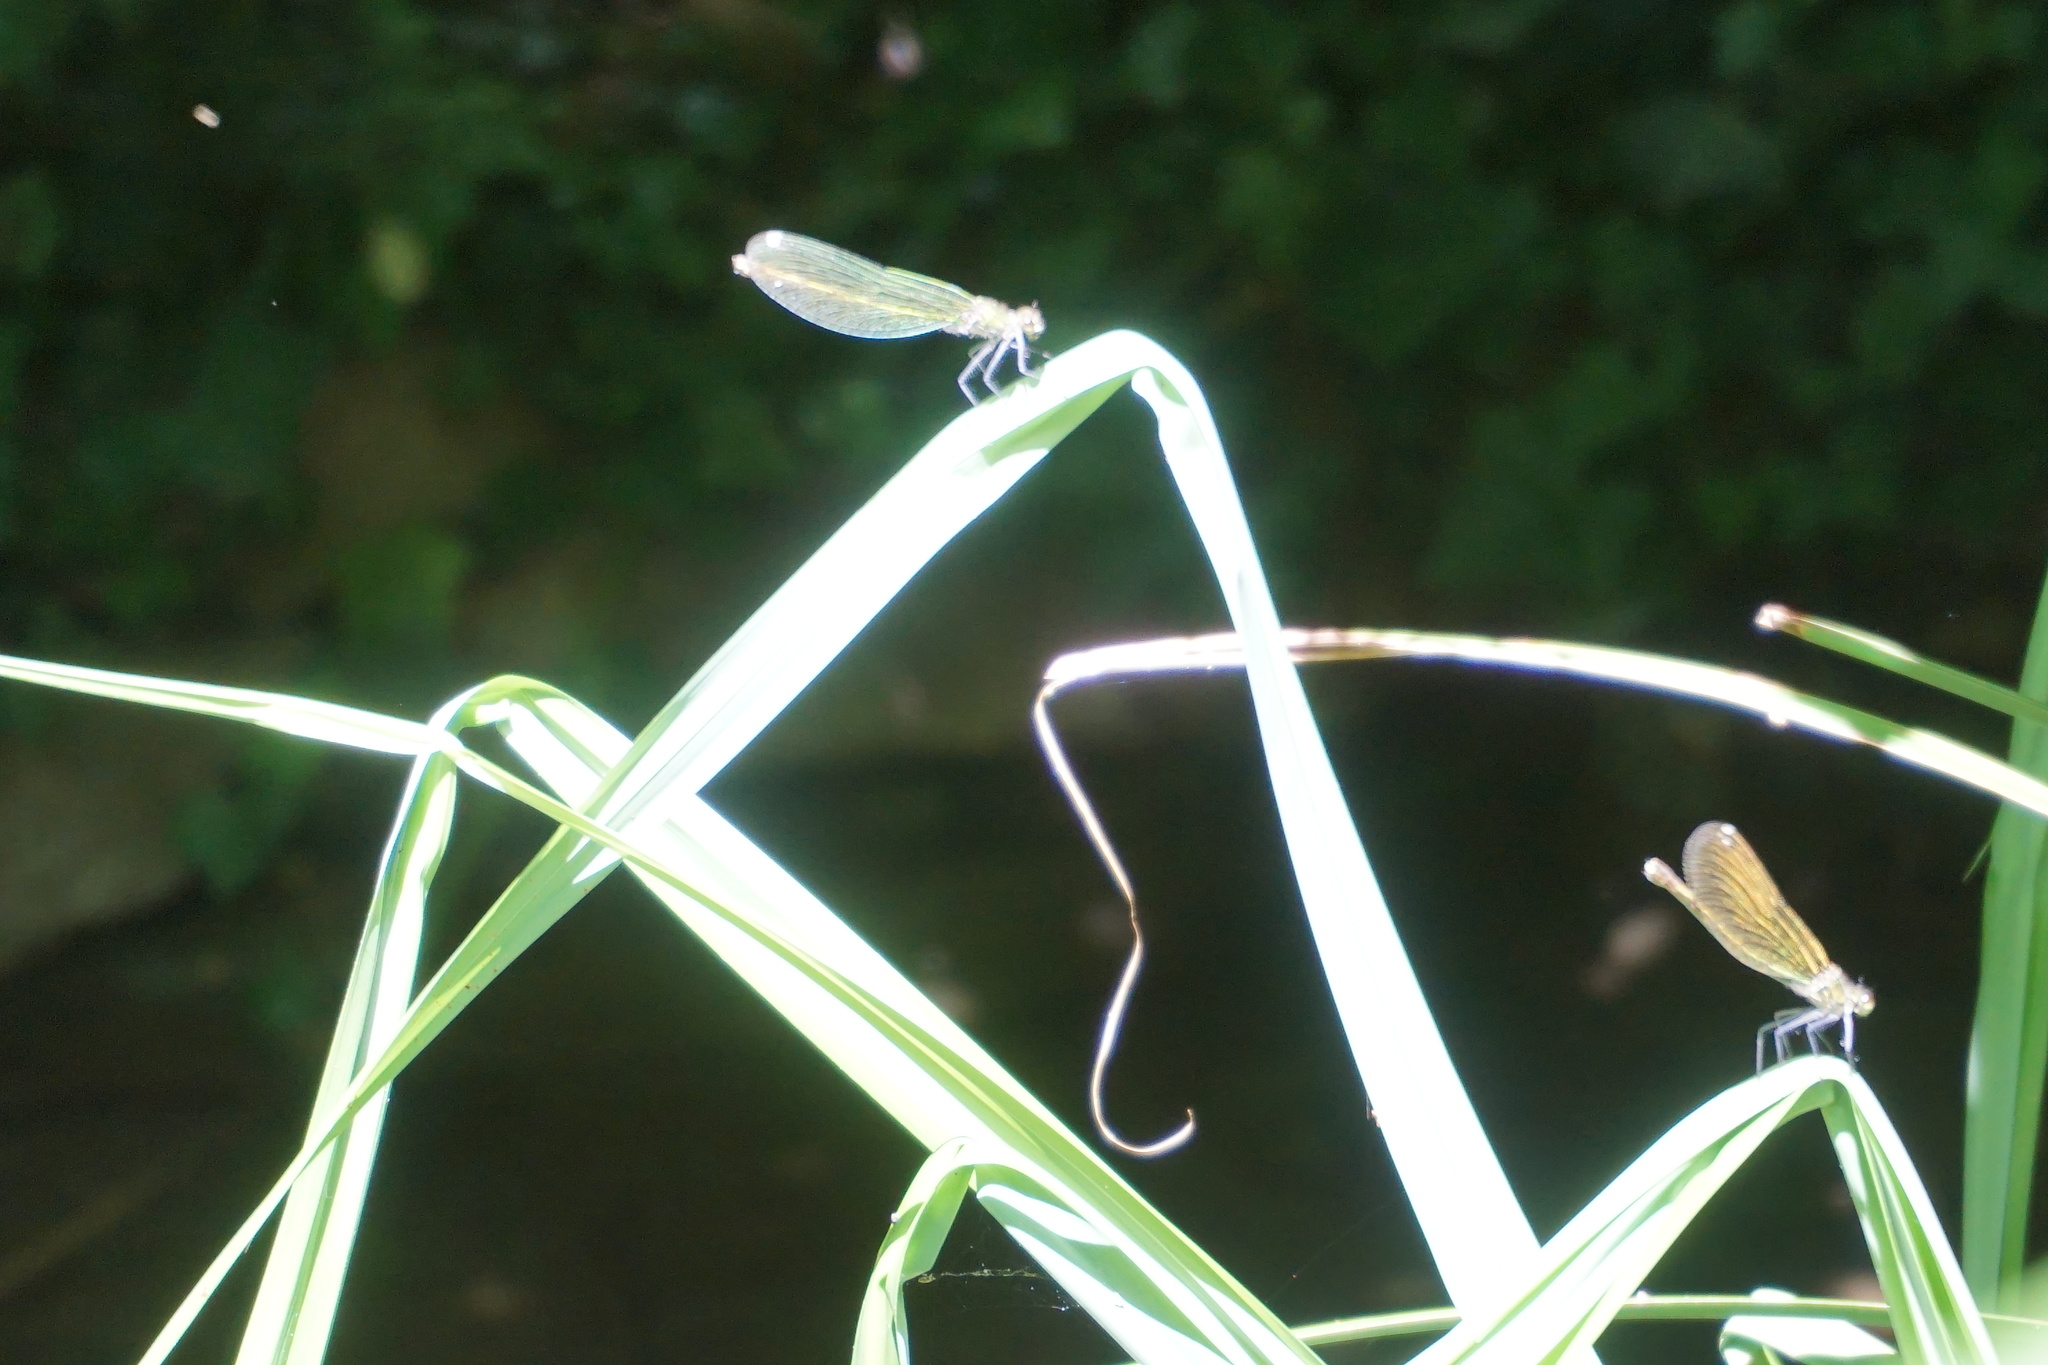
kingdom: Animalia
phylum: Arthropoda
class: Insecta
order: Odonata
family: Calopterygidae
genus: Calopteryx
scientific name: Calopteryx splendens
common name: Banded demoiselle
